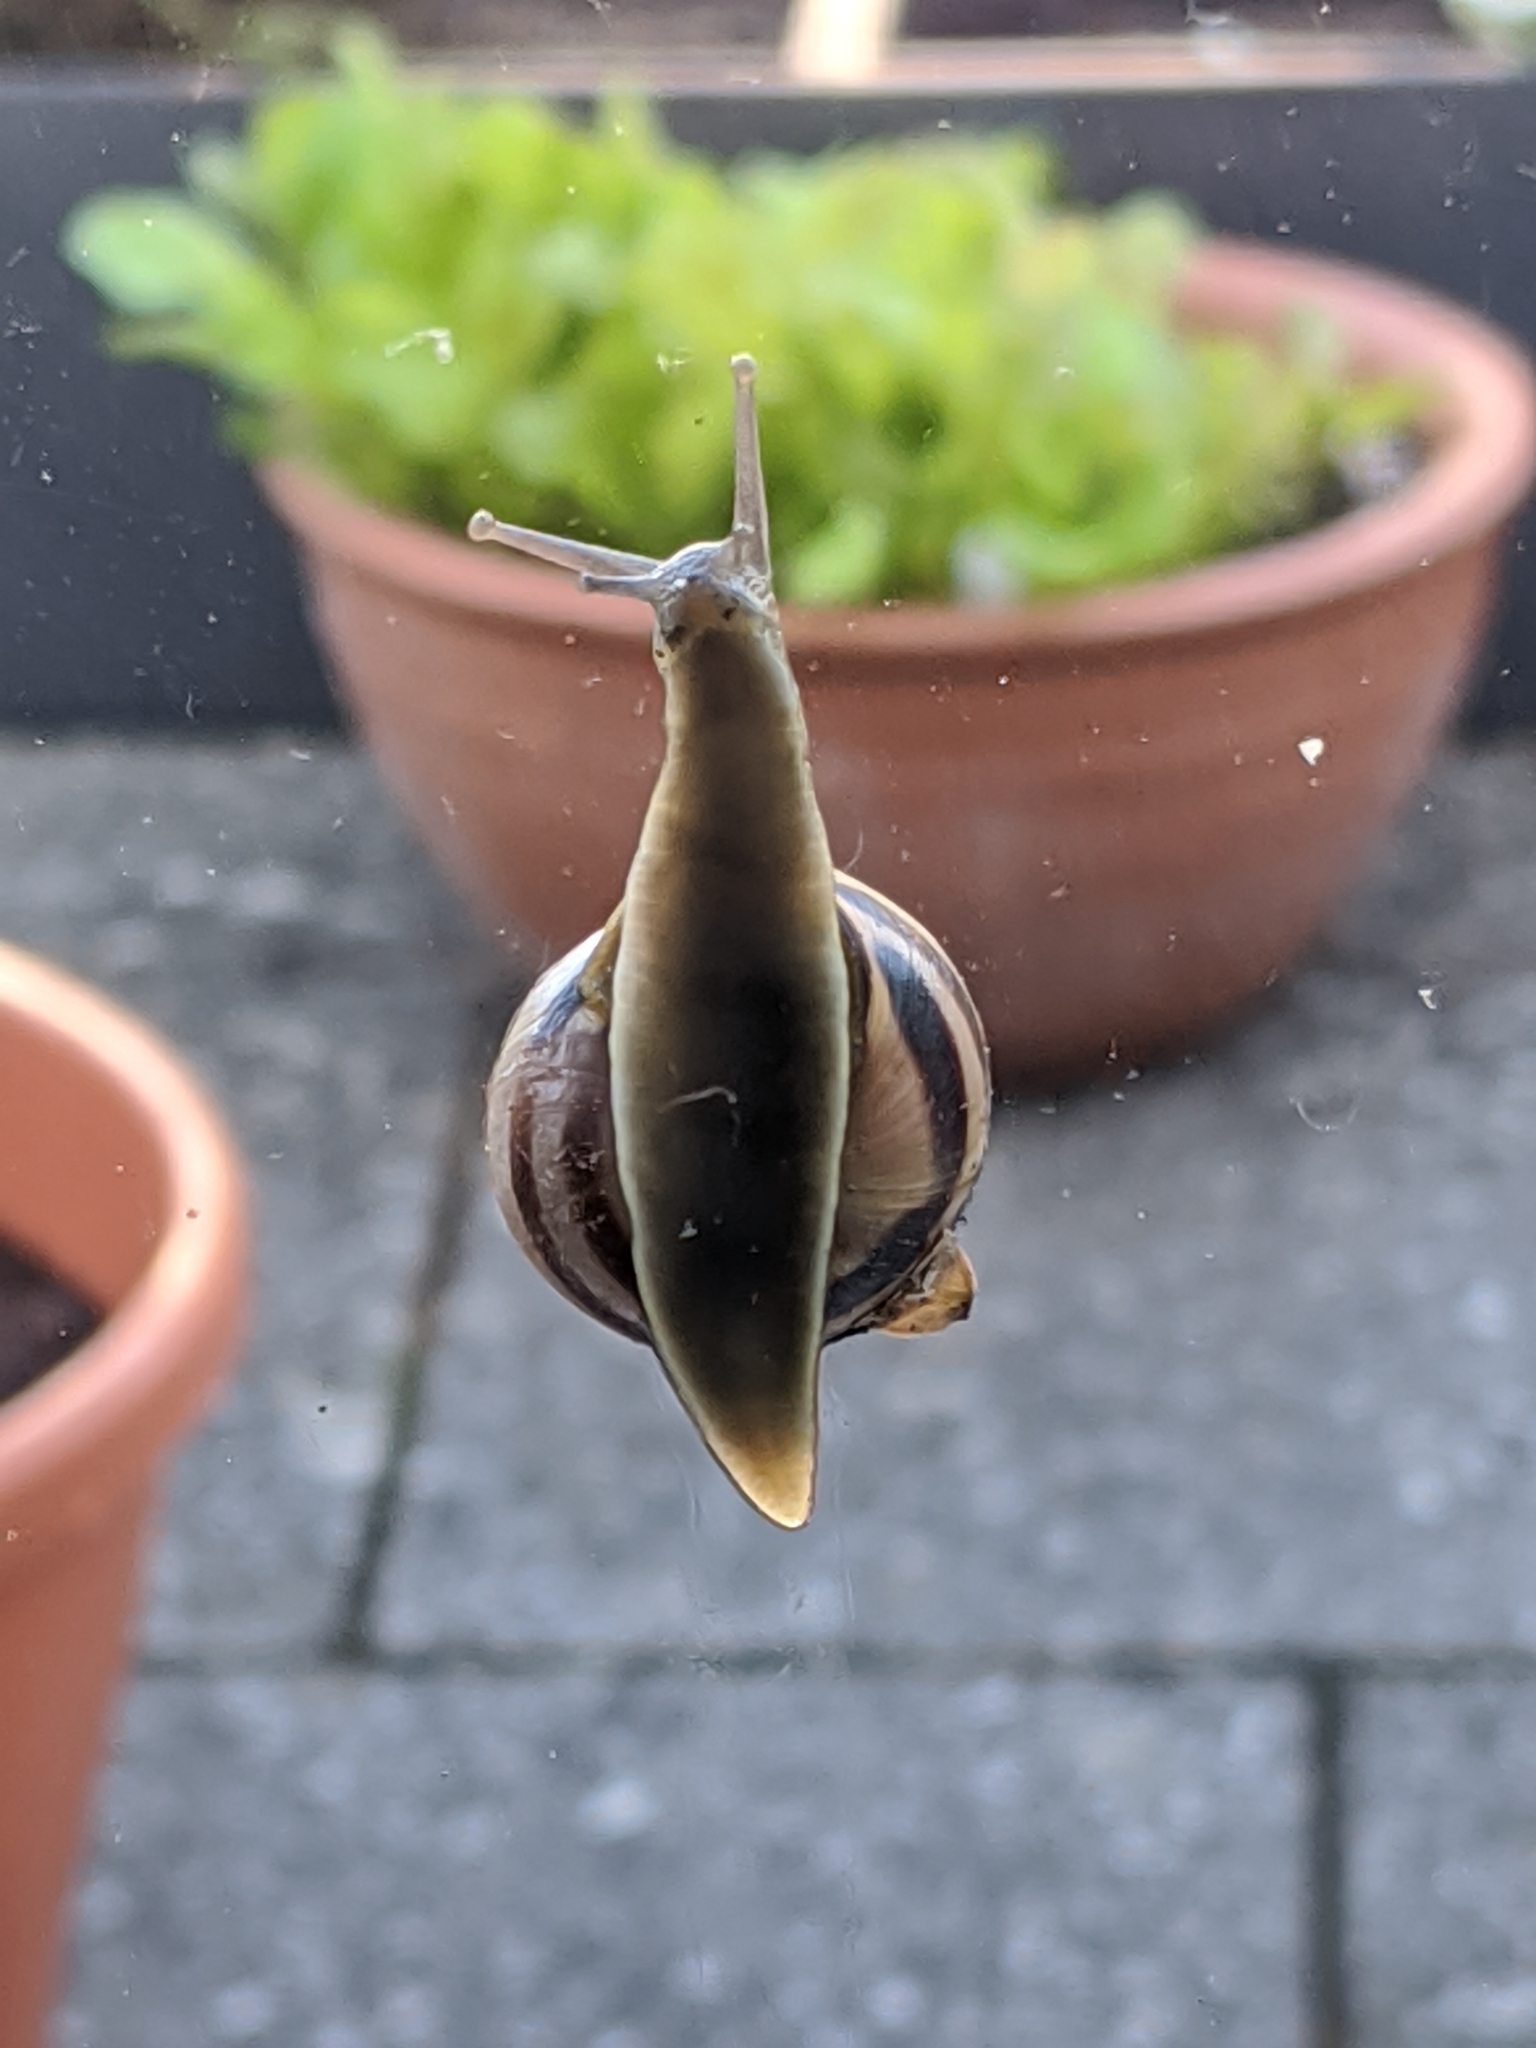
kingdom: Animalia
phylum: Mollusca
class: Gastropoda
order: Stylommatophora
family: Helicidae
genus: Cepaea
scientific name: Cepaea nemoralis
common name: Grovesnail
